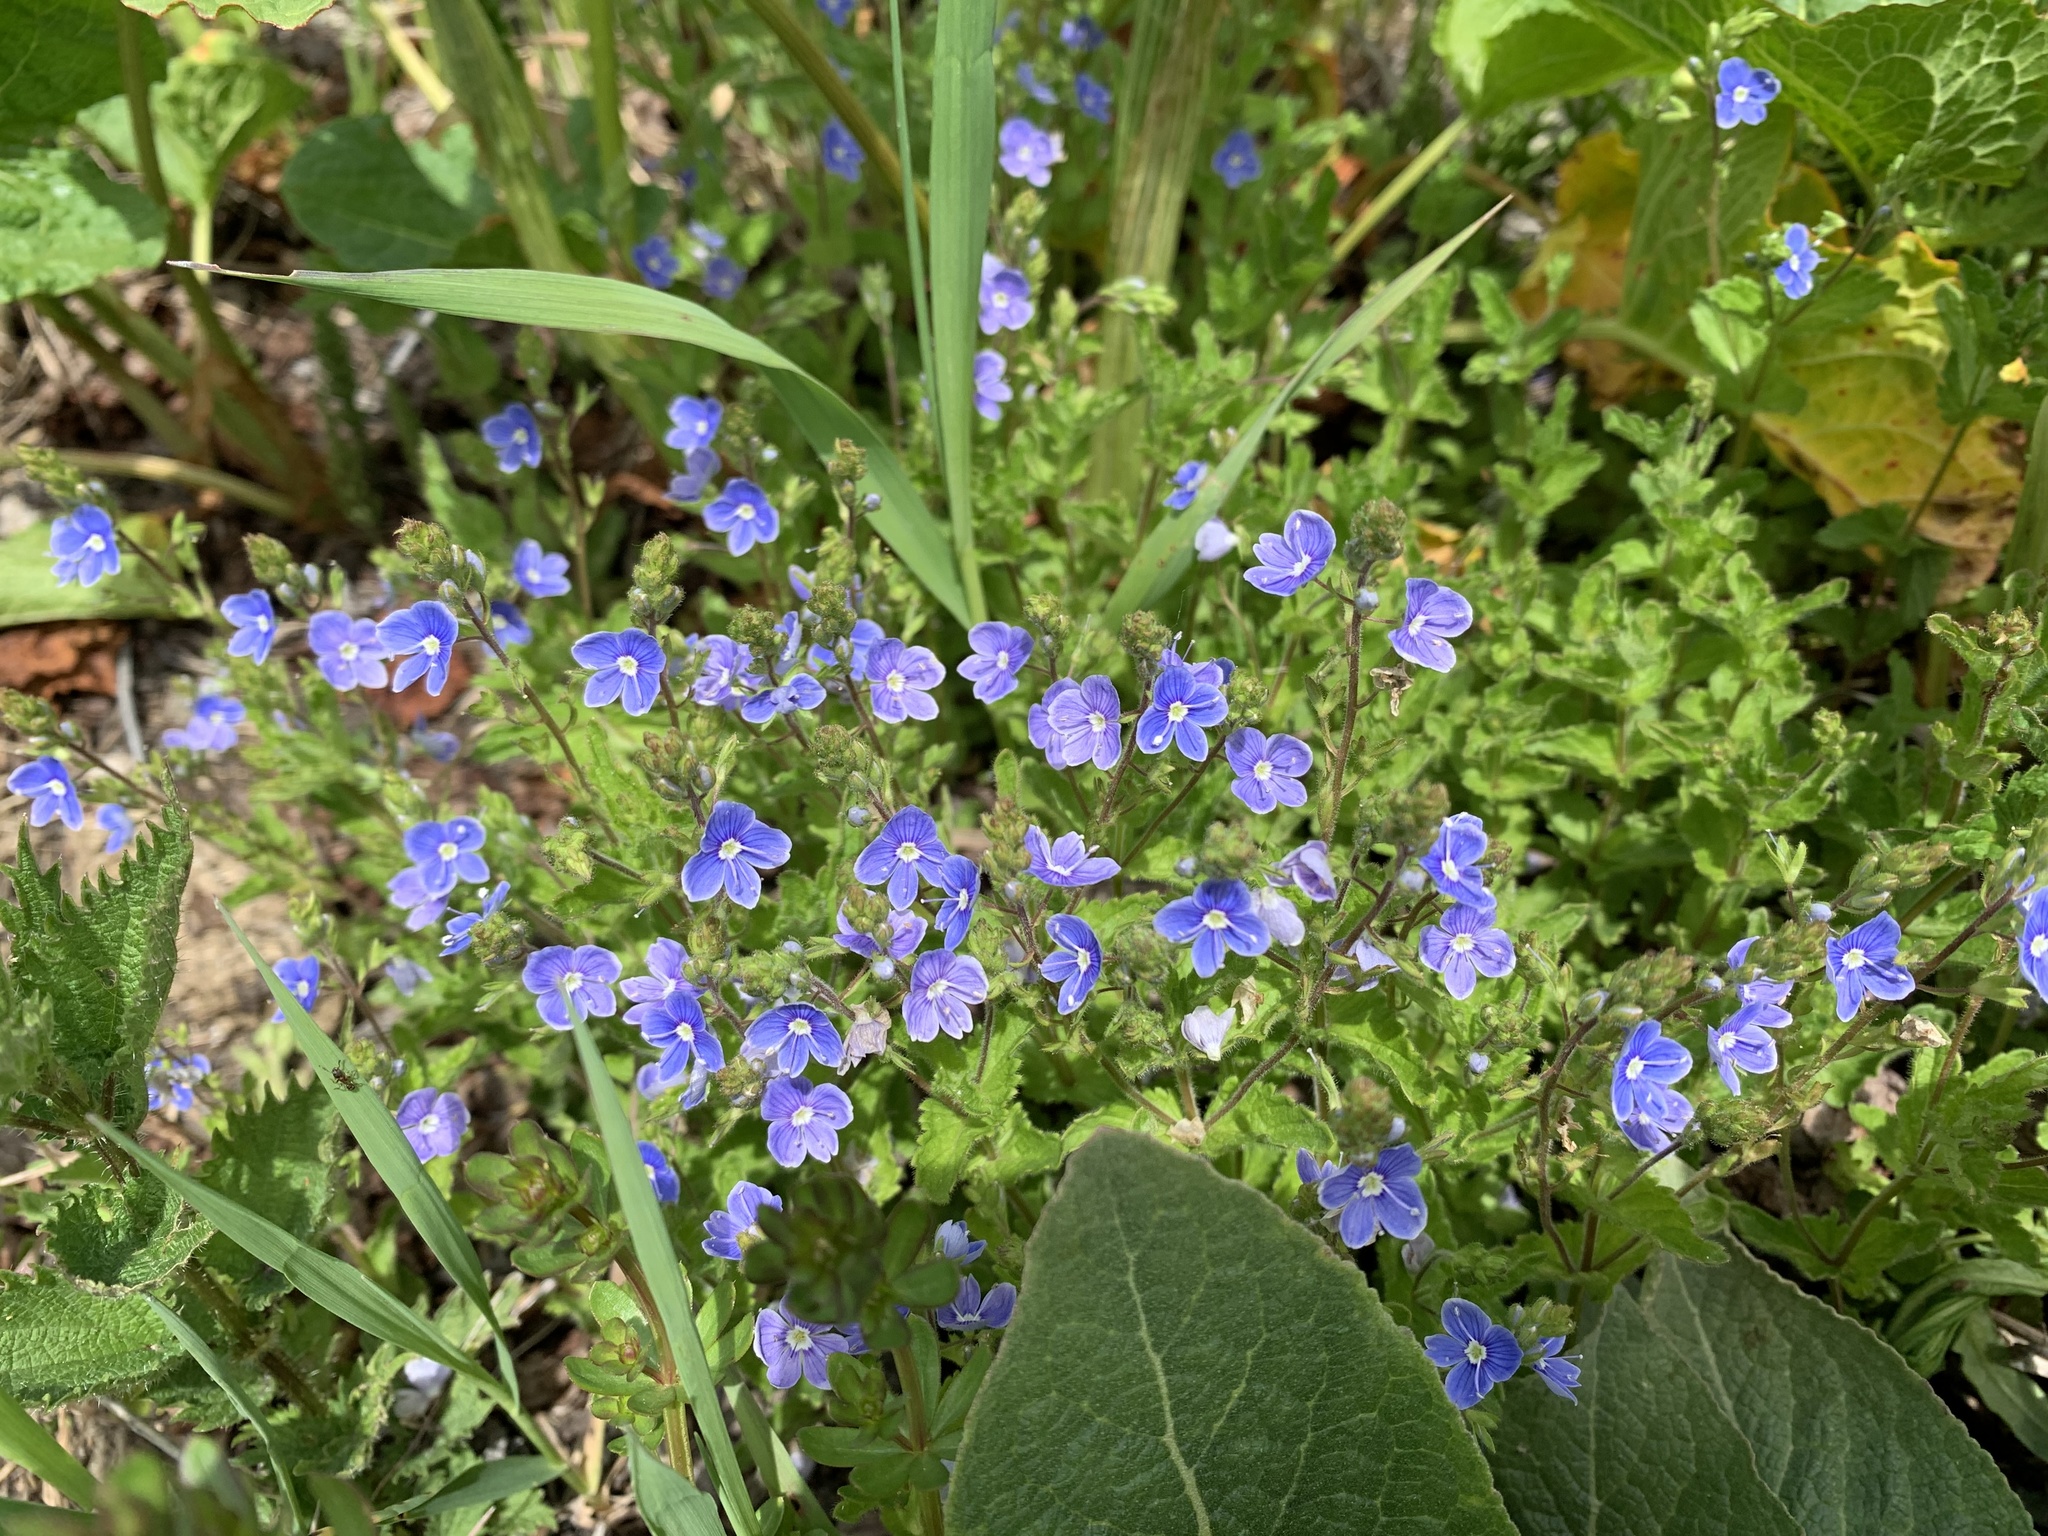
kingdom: Plantae
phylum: Tracheophyta
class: Magnoliopsida
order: Lamiales
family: Plantaginaceae
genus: Veronica
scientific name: Veronica chamaedrys
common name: Germander speedwell
